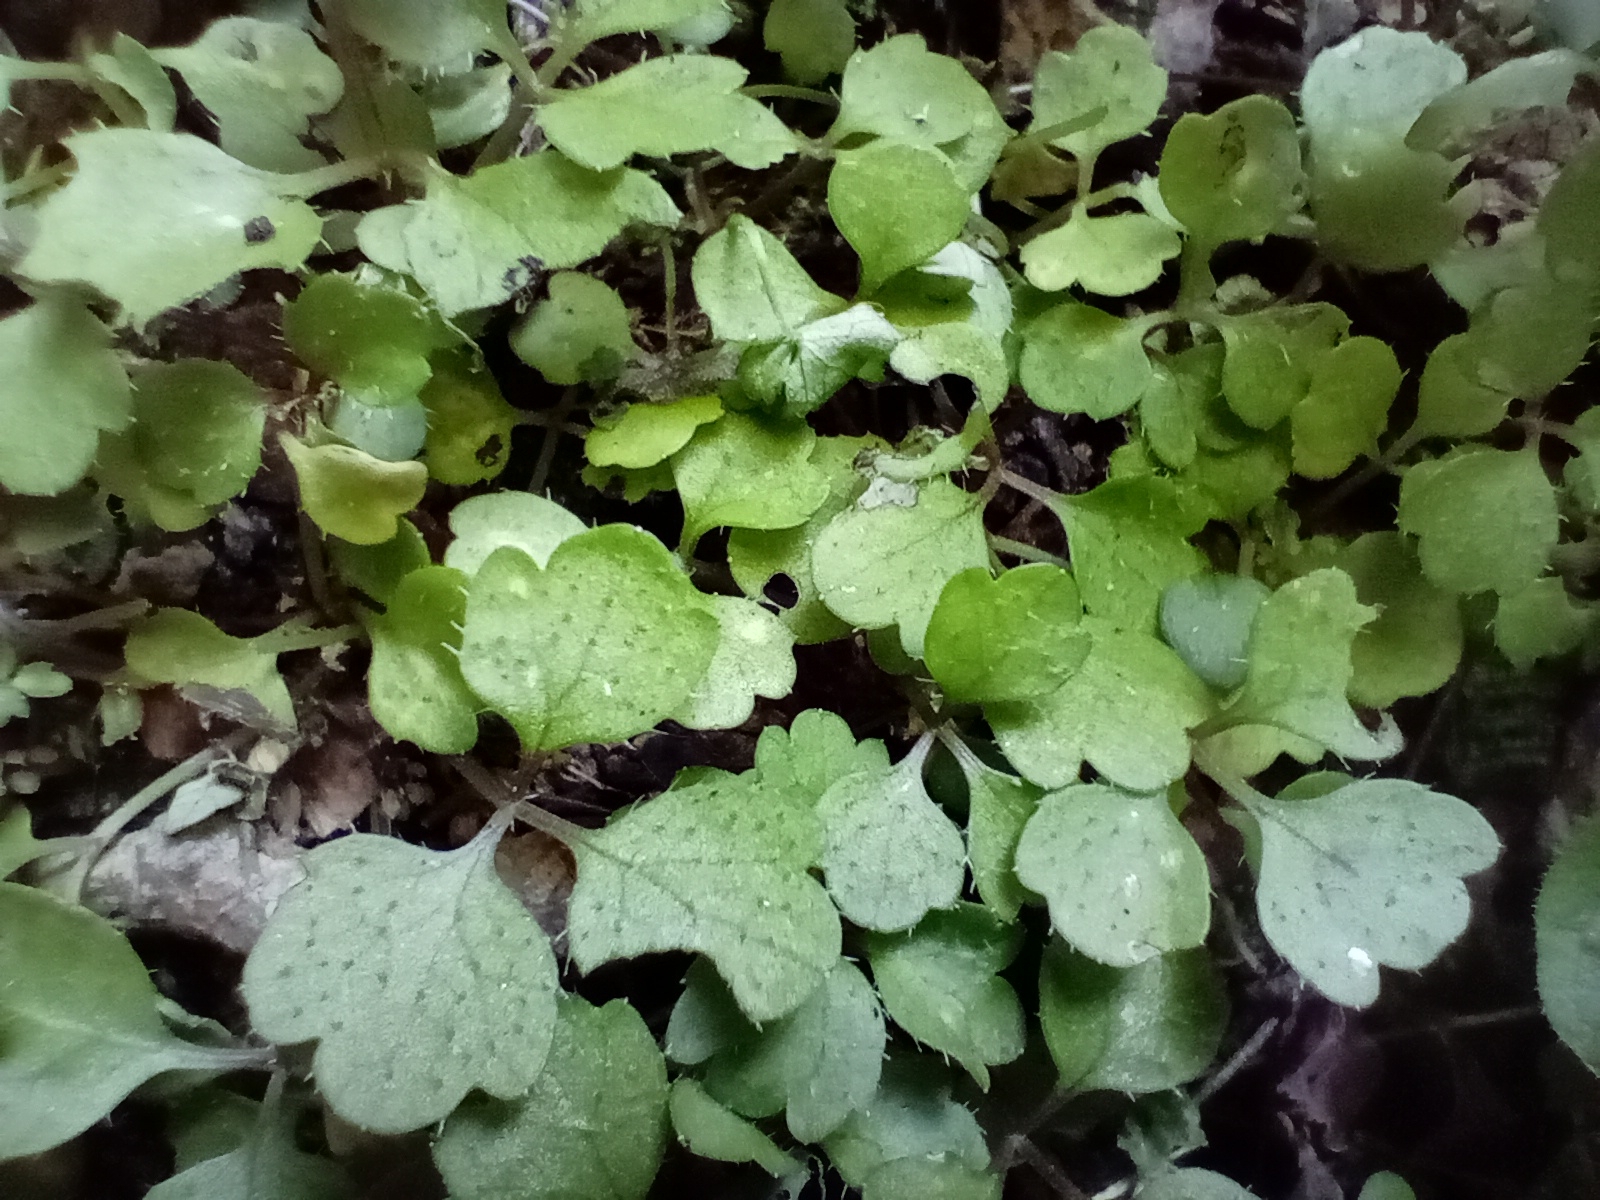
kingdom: Plantae
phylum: Tracheophyta
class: Magnoliopsida
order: Apiales
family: Apiaceae
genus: Azorella
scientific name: Azorella hookeri
